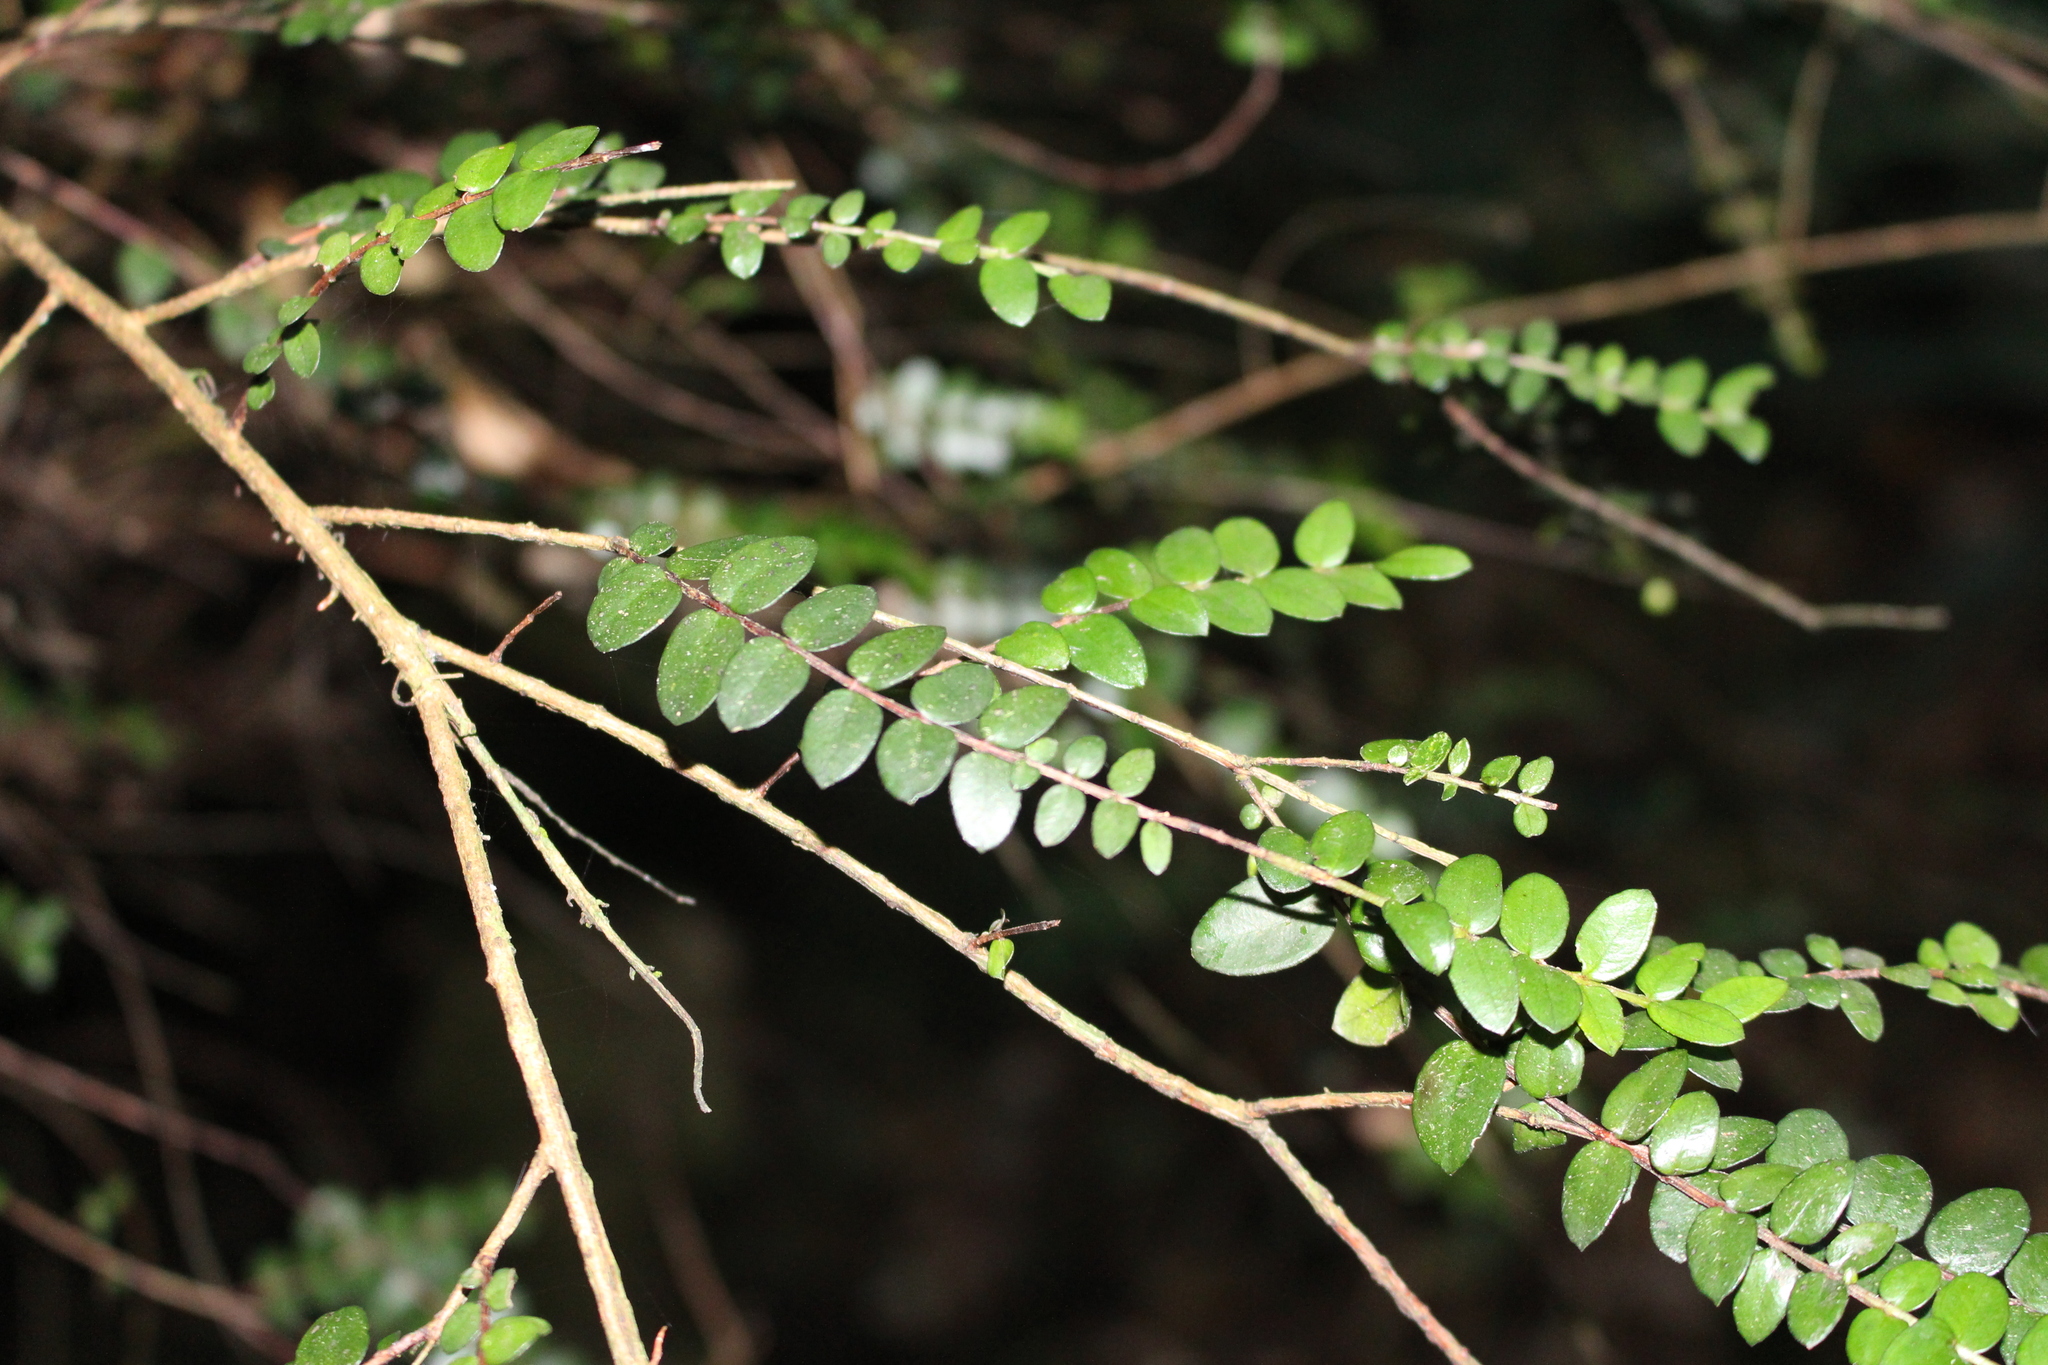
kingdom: Plantae
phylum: Tracheophyta
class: Magnoliopsida
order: Myrtales
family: Myrtaceae
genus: Metrosideros
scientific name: Metrosideros diffusa
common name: Small ratavine
